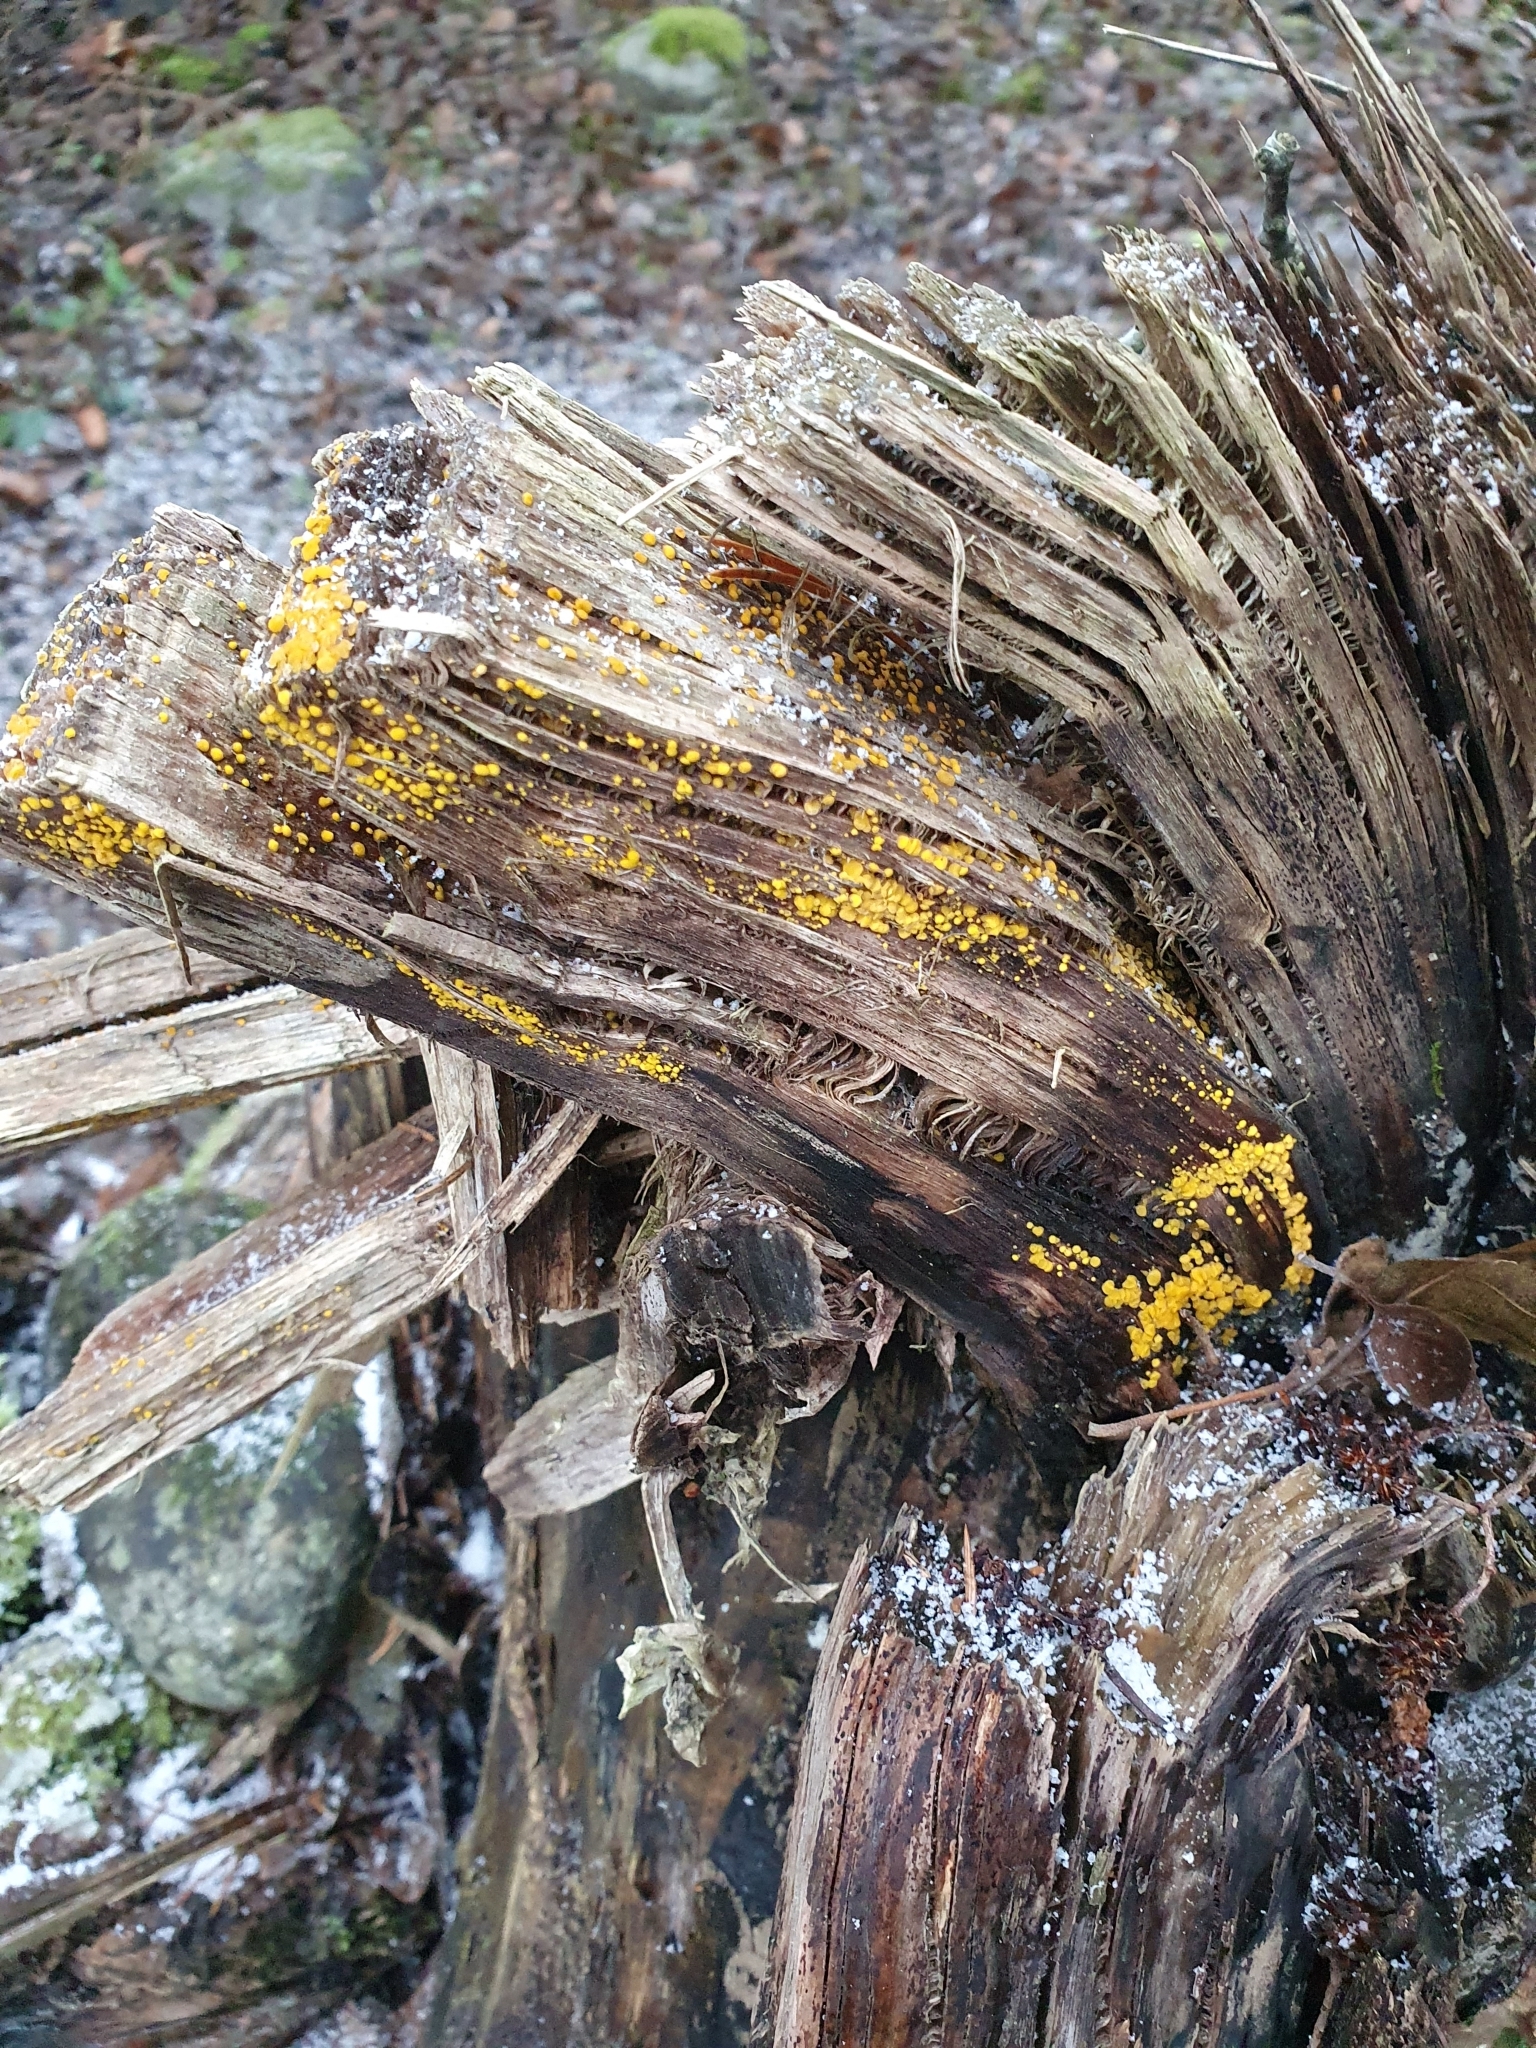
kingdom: Fungi
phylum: Ascomycota
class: Leotiomycetes
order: Helotiales
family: Pezizellaceae
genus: Calycina
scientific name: Calycina citrina
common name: Yellow fairy cups
